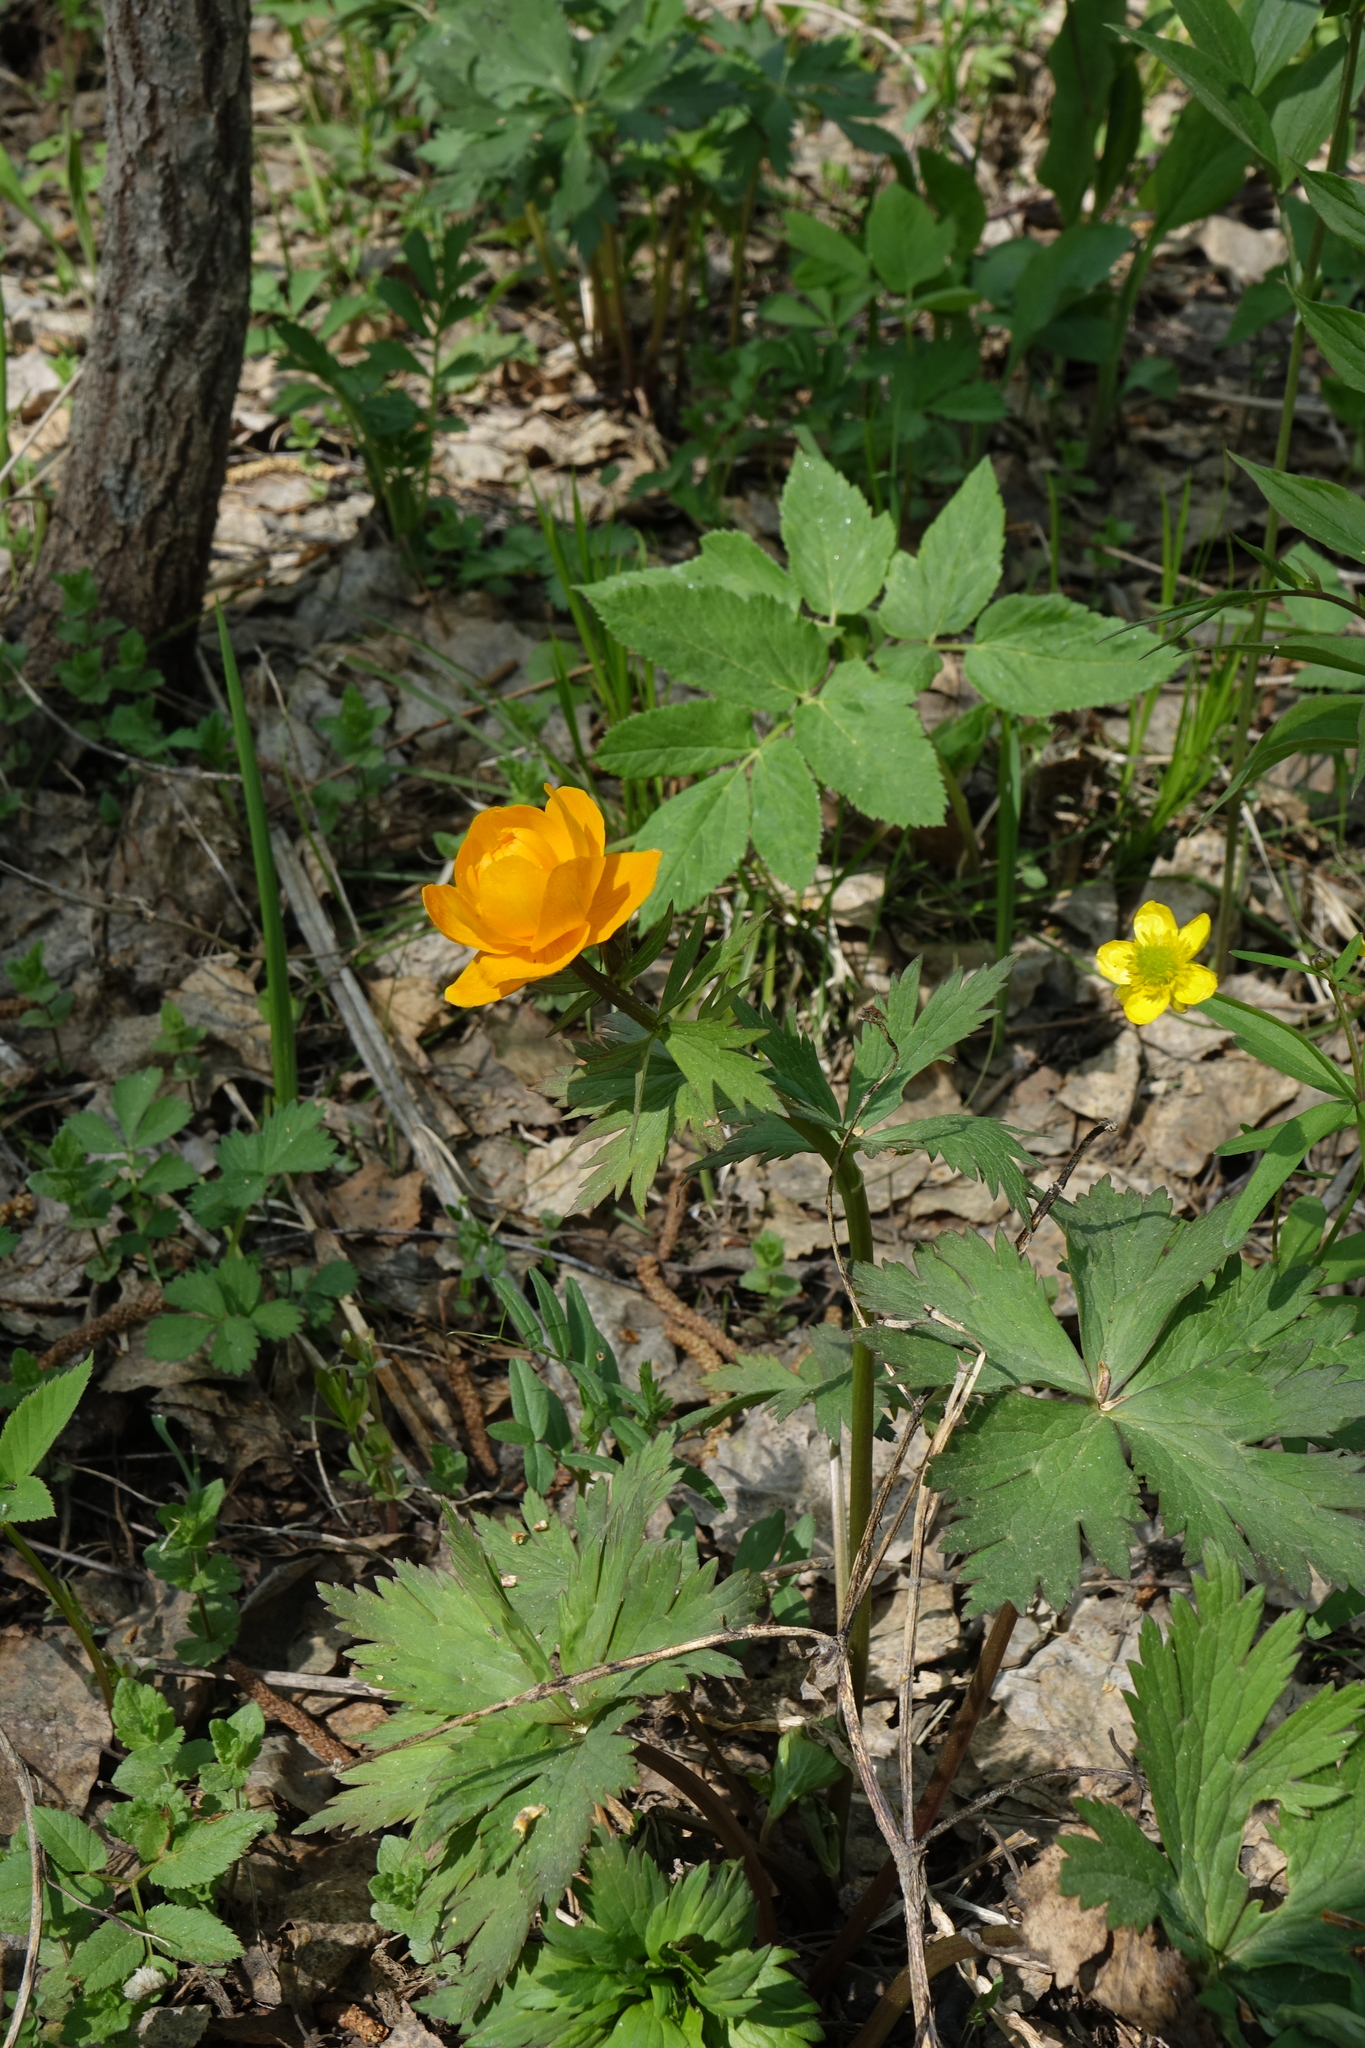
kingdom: Plantae
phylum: Tracheophyta
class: Magnoliopsida
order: Ranunculales
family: Ranunculaceae
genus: Trollius
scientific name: Trollius asiaticus
